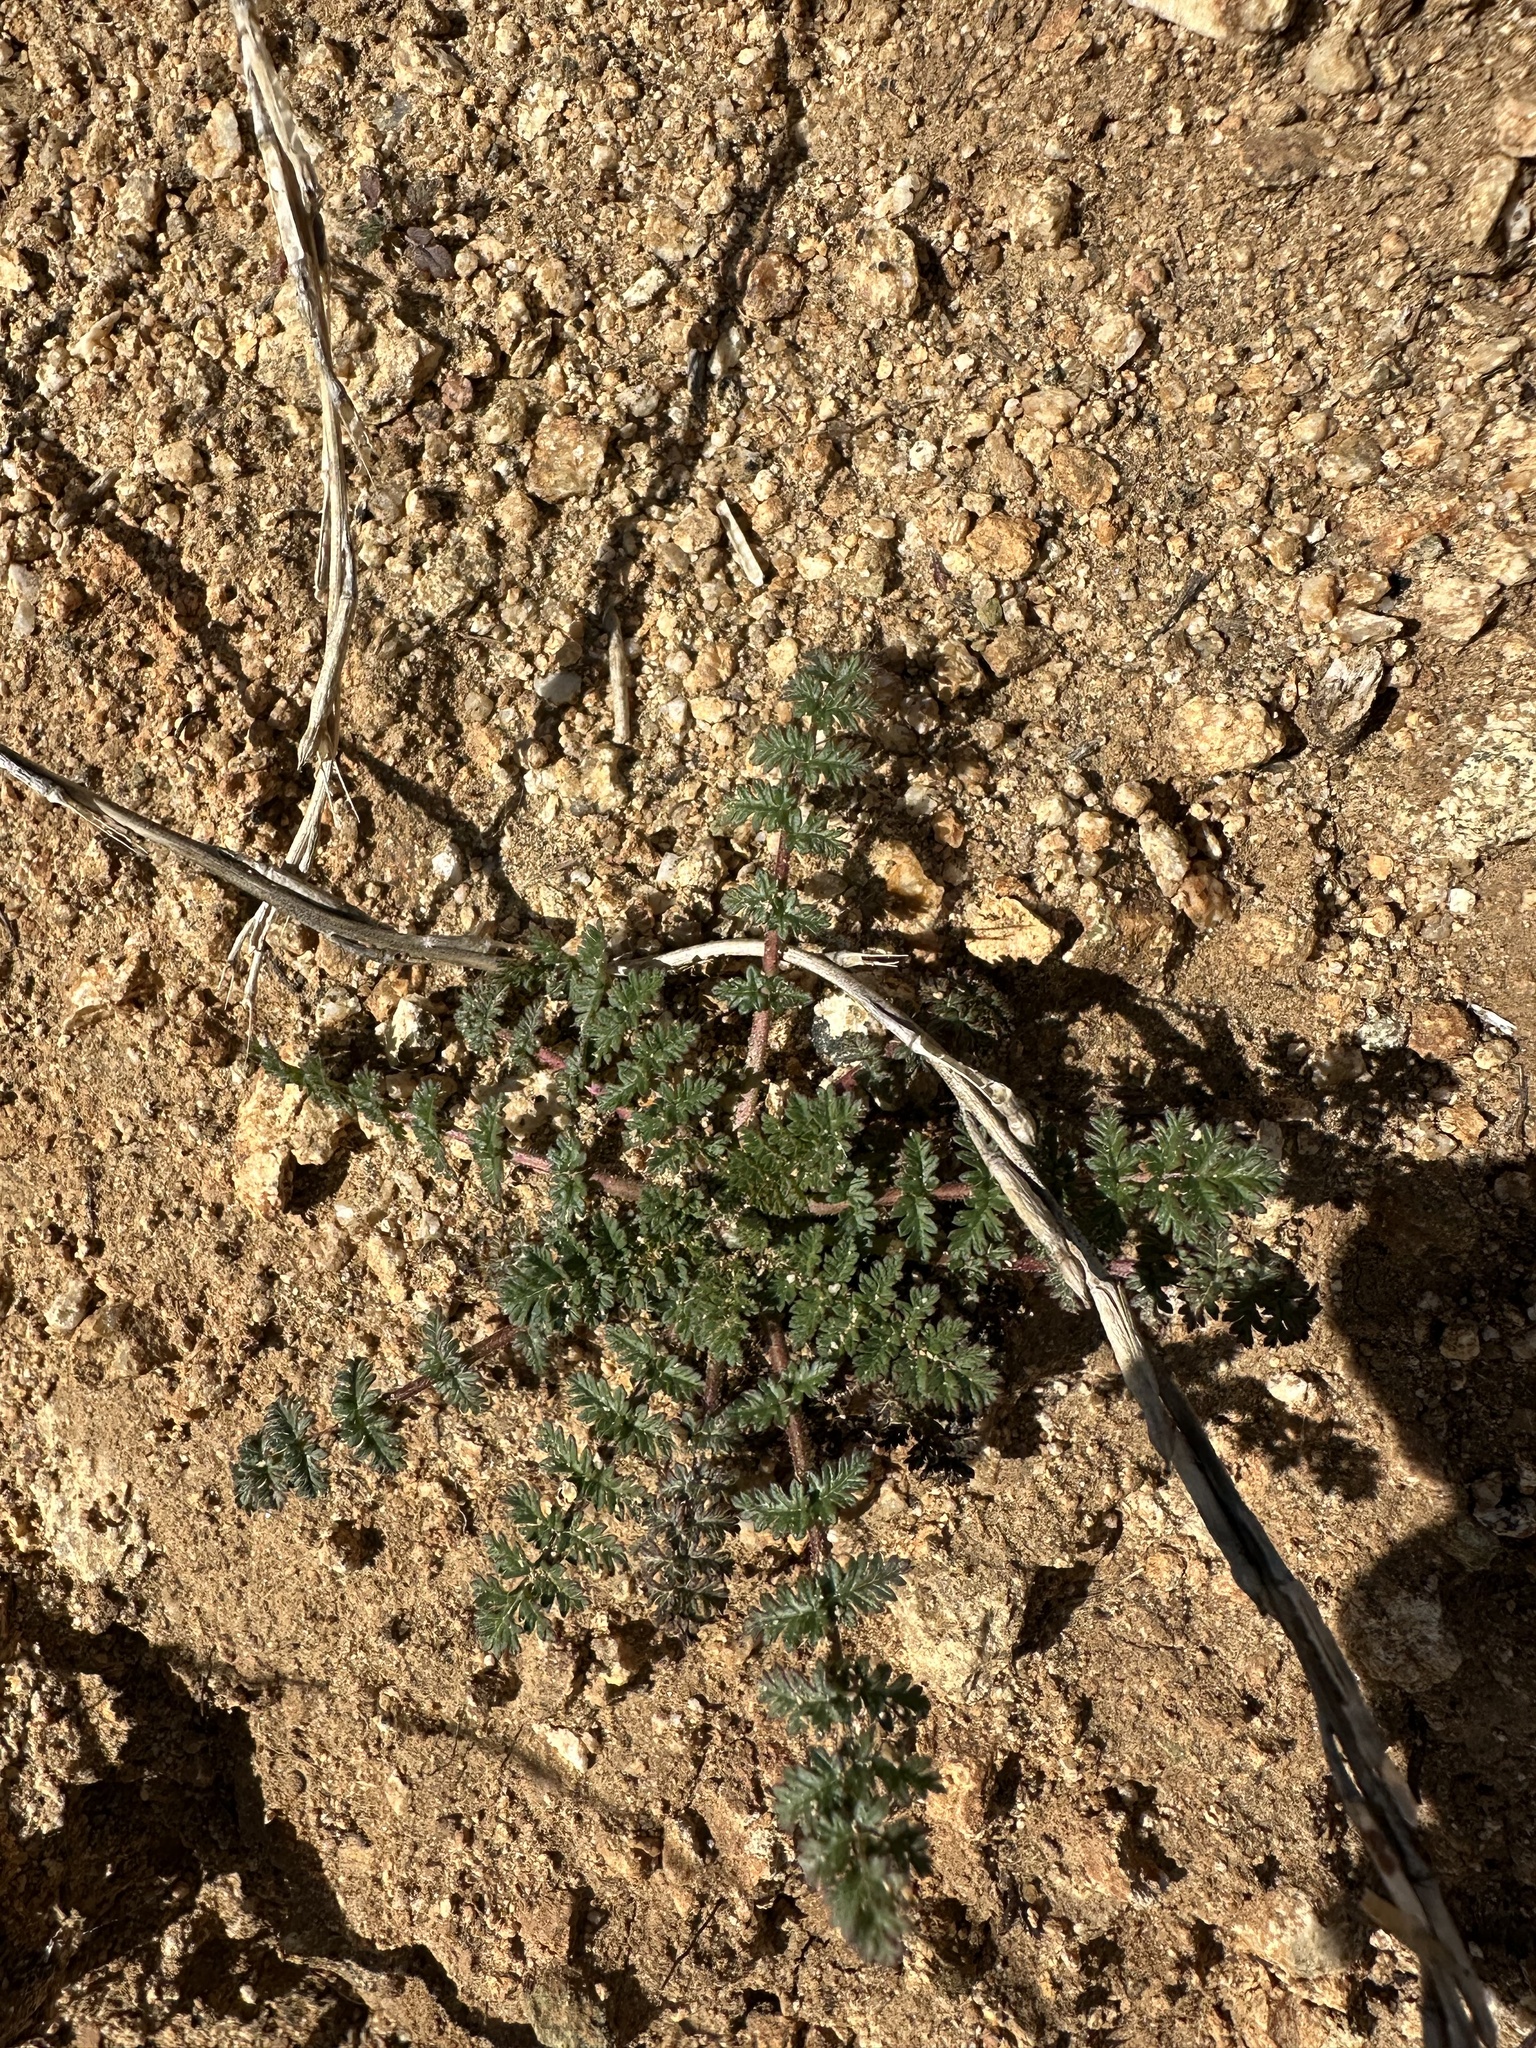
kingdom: Plantae
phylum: Tracheophyta
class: Magnoliopsida
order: Geraniales
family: Geraniaceae
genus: Erodium
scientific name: Erodium cicutarium
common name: Common stork's-bill
